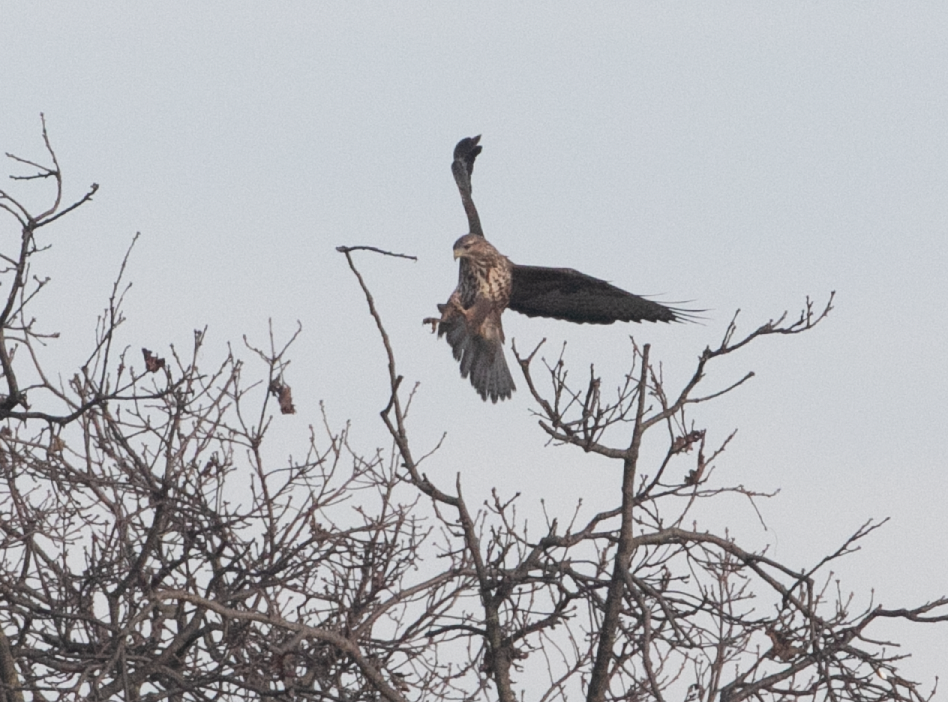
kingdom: Animalia
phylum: Chordata
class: Aves
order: Accipitriformes
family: Accipitridae
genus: Buteo
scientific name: Buteo buteo
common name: Common buzzard
